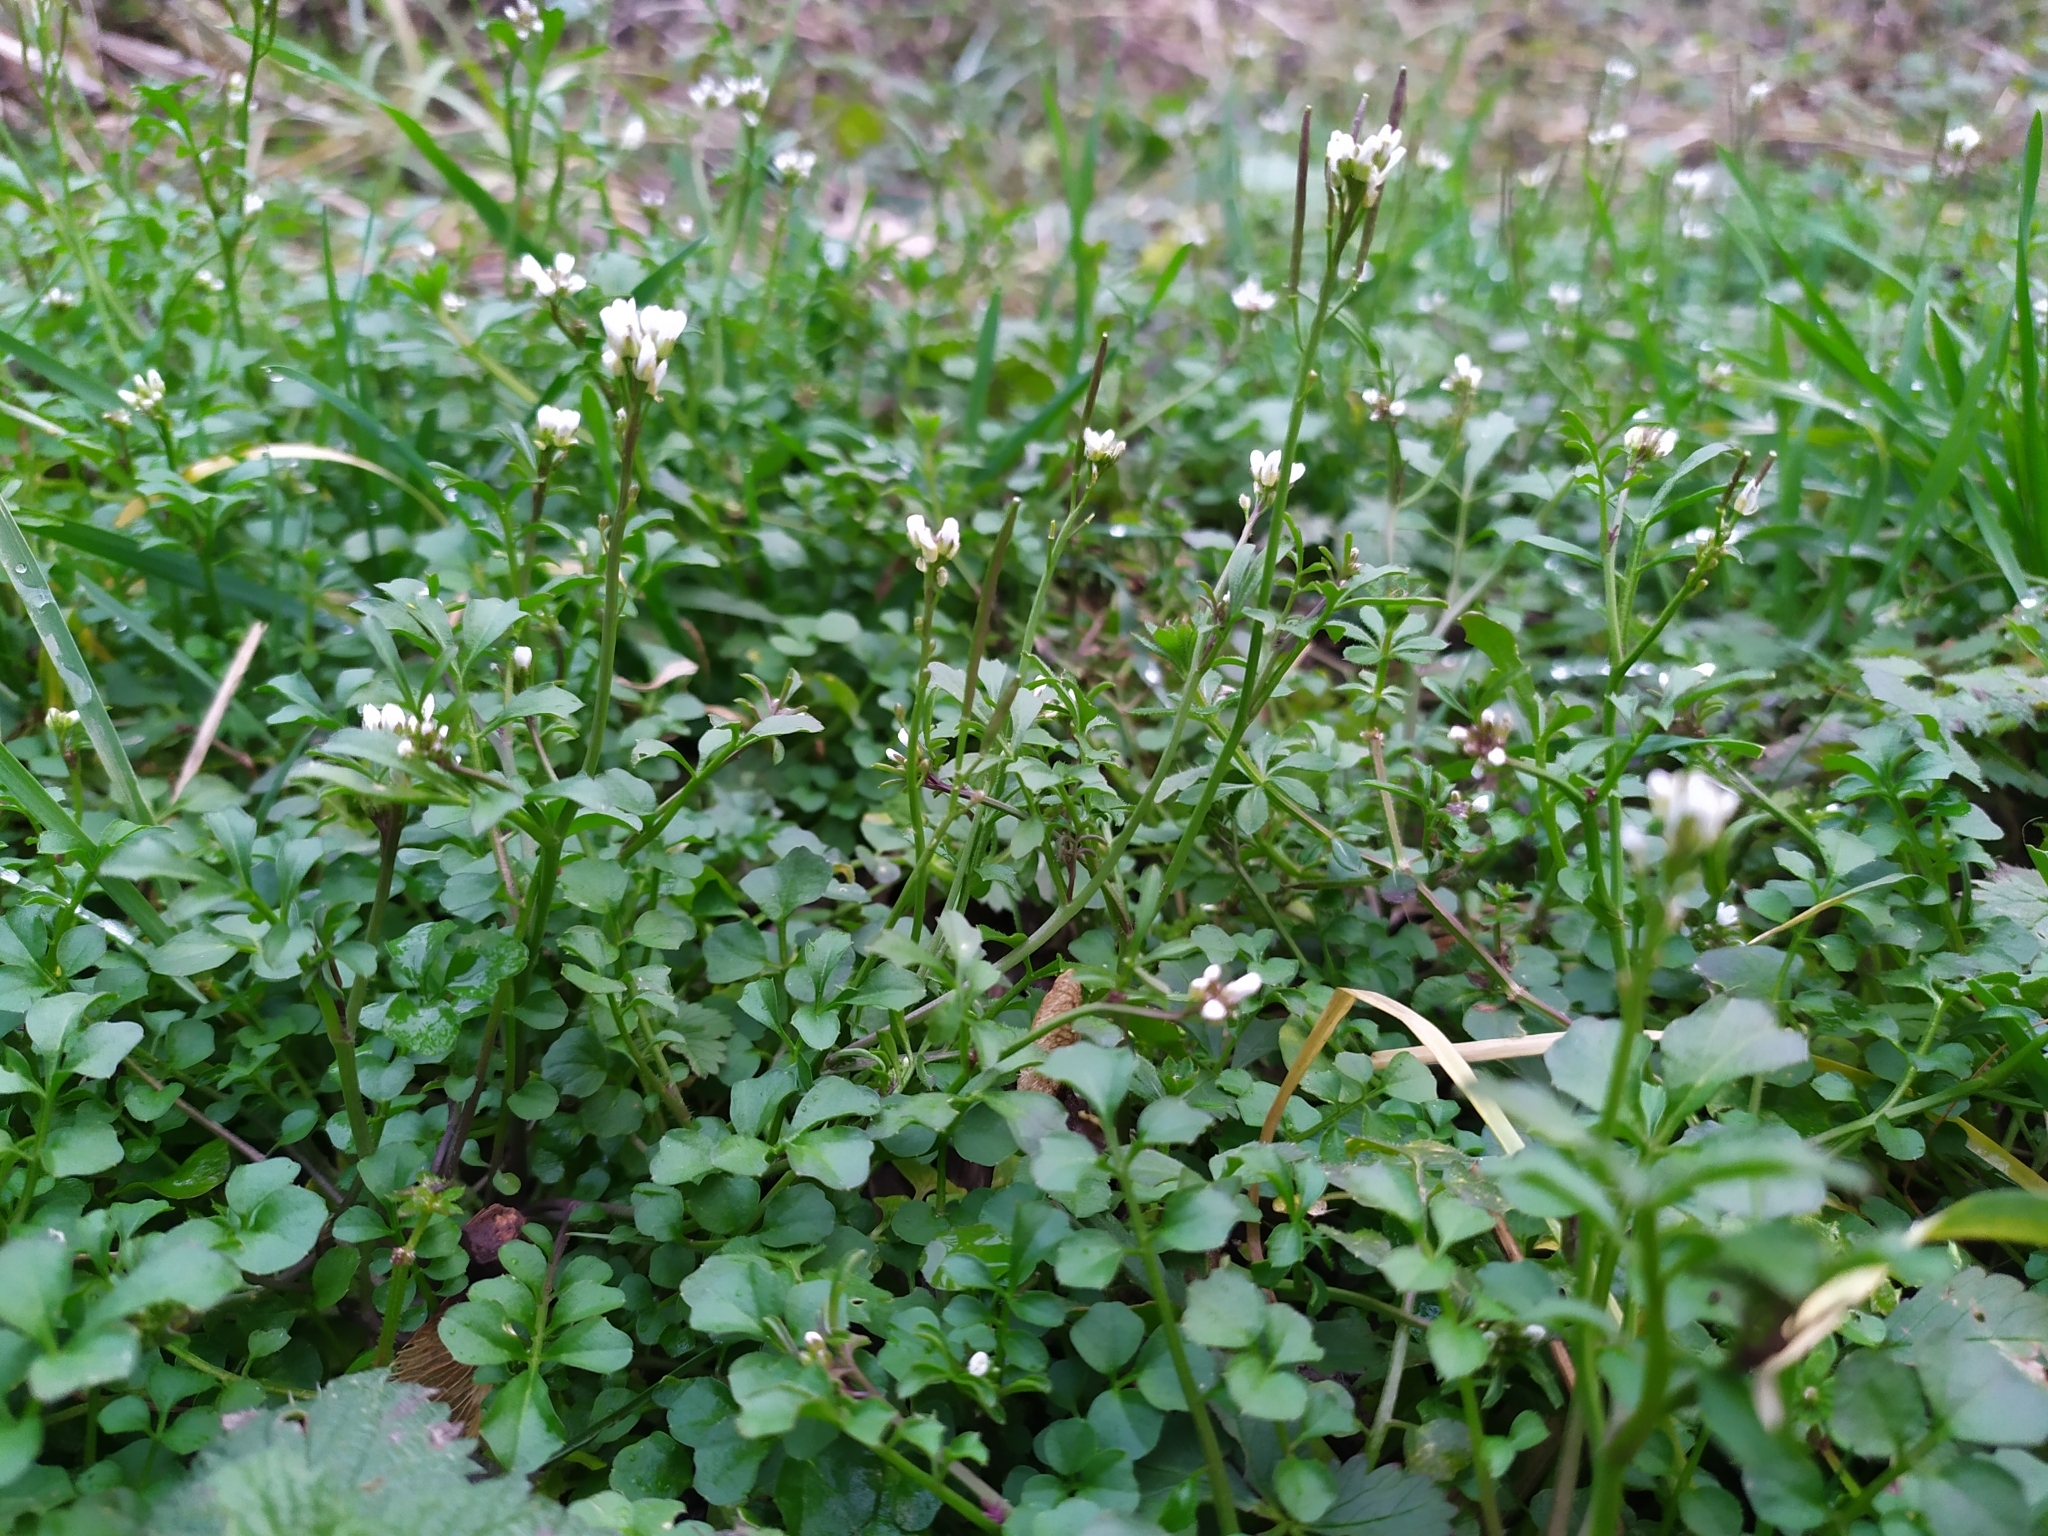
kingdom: Plantae
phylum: Tracheophyta
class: Magnoliopsida
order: Brassicales
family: Brassicaceae
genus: Cardamine
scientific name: Cardamine hirsuta
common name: Hairy bittercress
